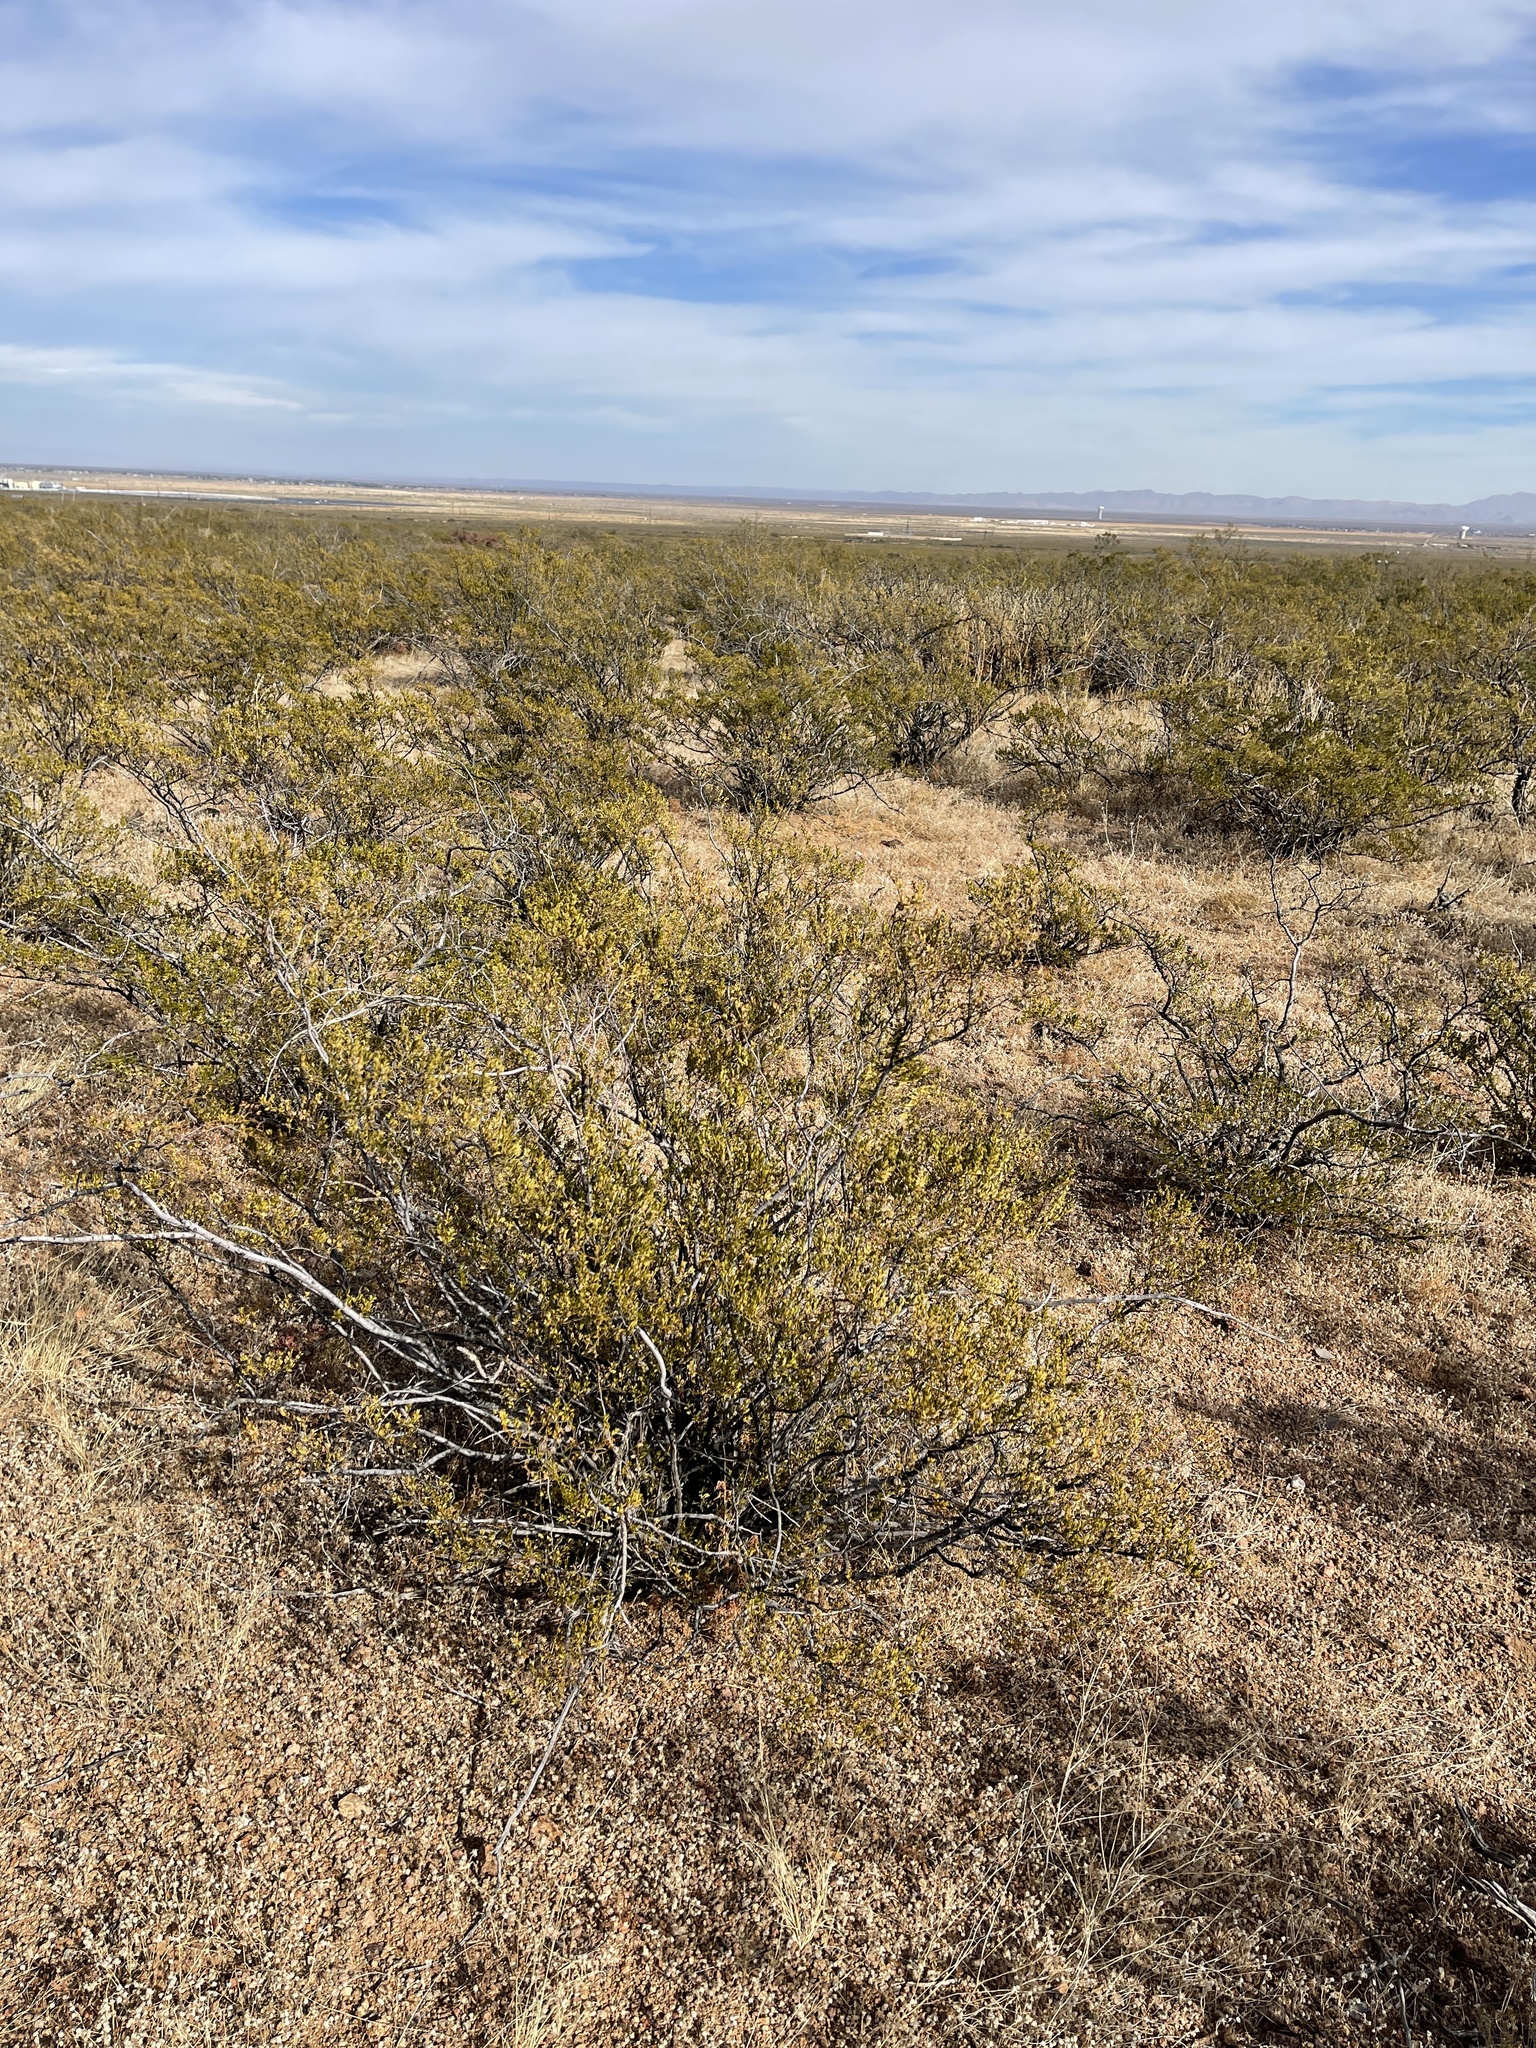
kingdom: Plantae
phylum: Tracheophyta
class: Magnoliopsida
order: Zygophyllales
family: Zygophyllaceae
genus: Larrea
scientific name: Larrea tridentata
